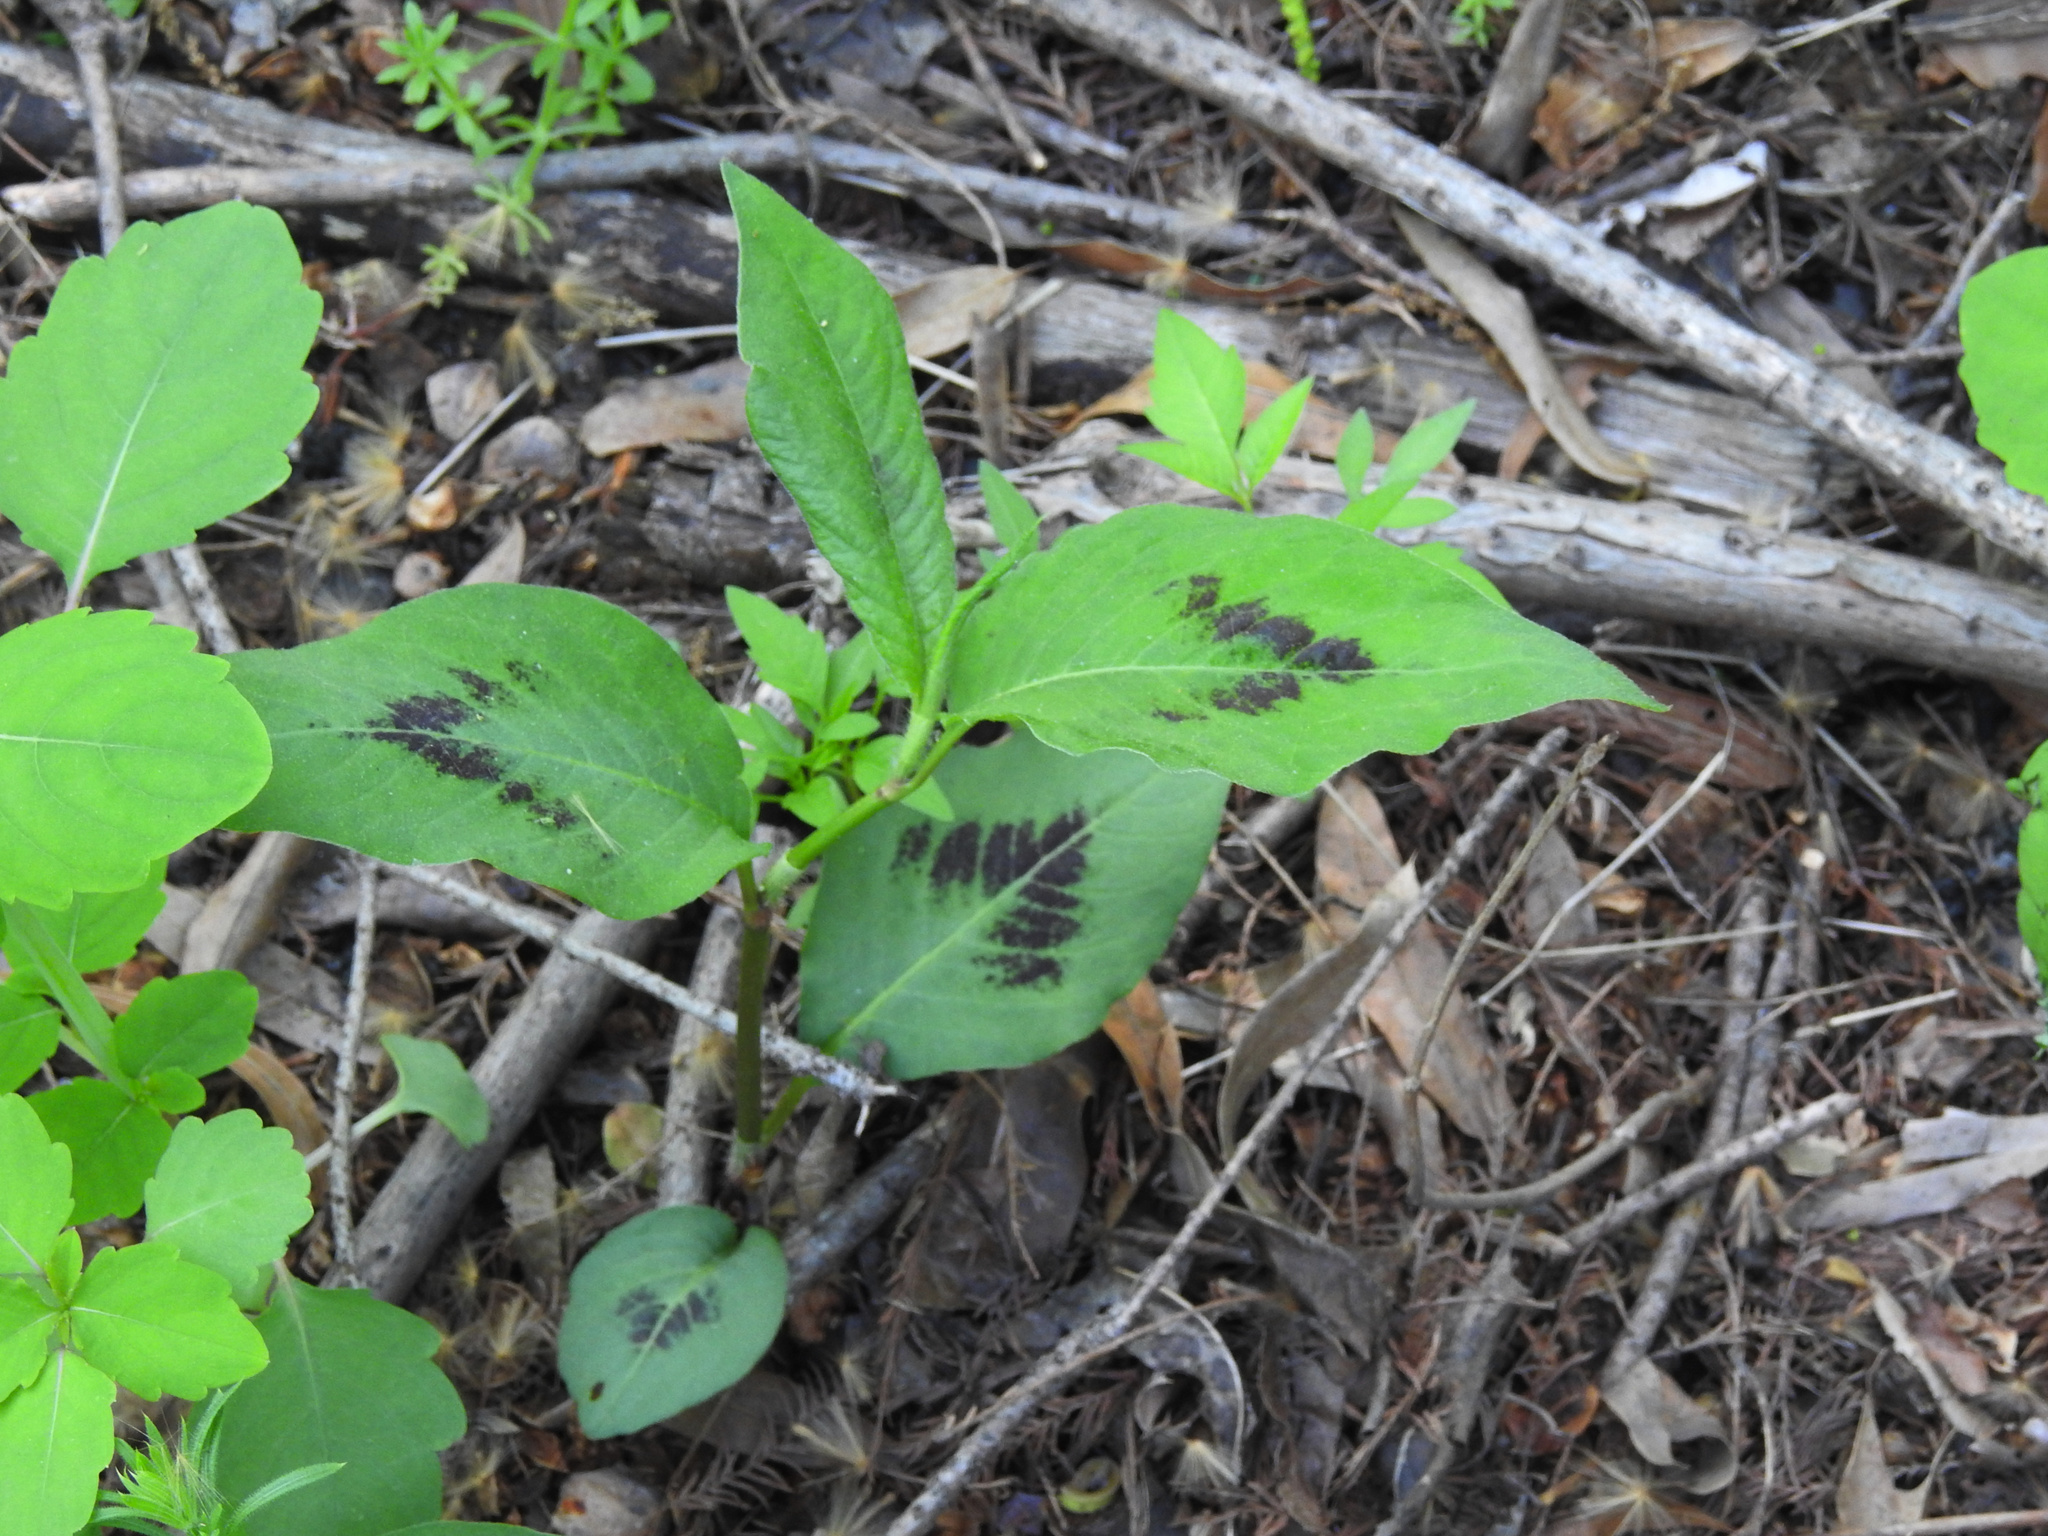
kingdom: Plantae
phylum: Tracheophyta
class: Magnoliopsida
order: Caryophyllales
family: Polygonaceae
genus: Persicaria
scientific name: Persicaria virginiana
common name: Jumpseed
